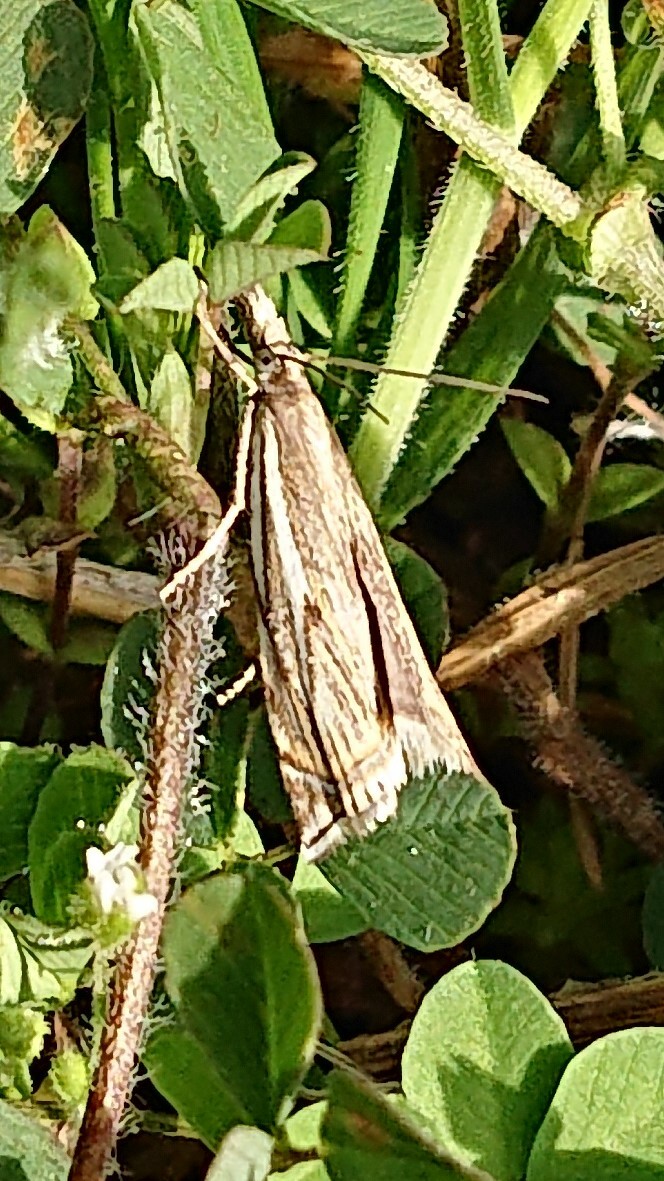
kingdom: Animalia
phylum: Arthropoda
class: Insecta
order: Lepidoptera
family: Crambidae
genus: Crambus
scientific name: Crambus nemorella
